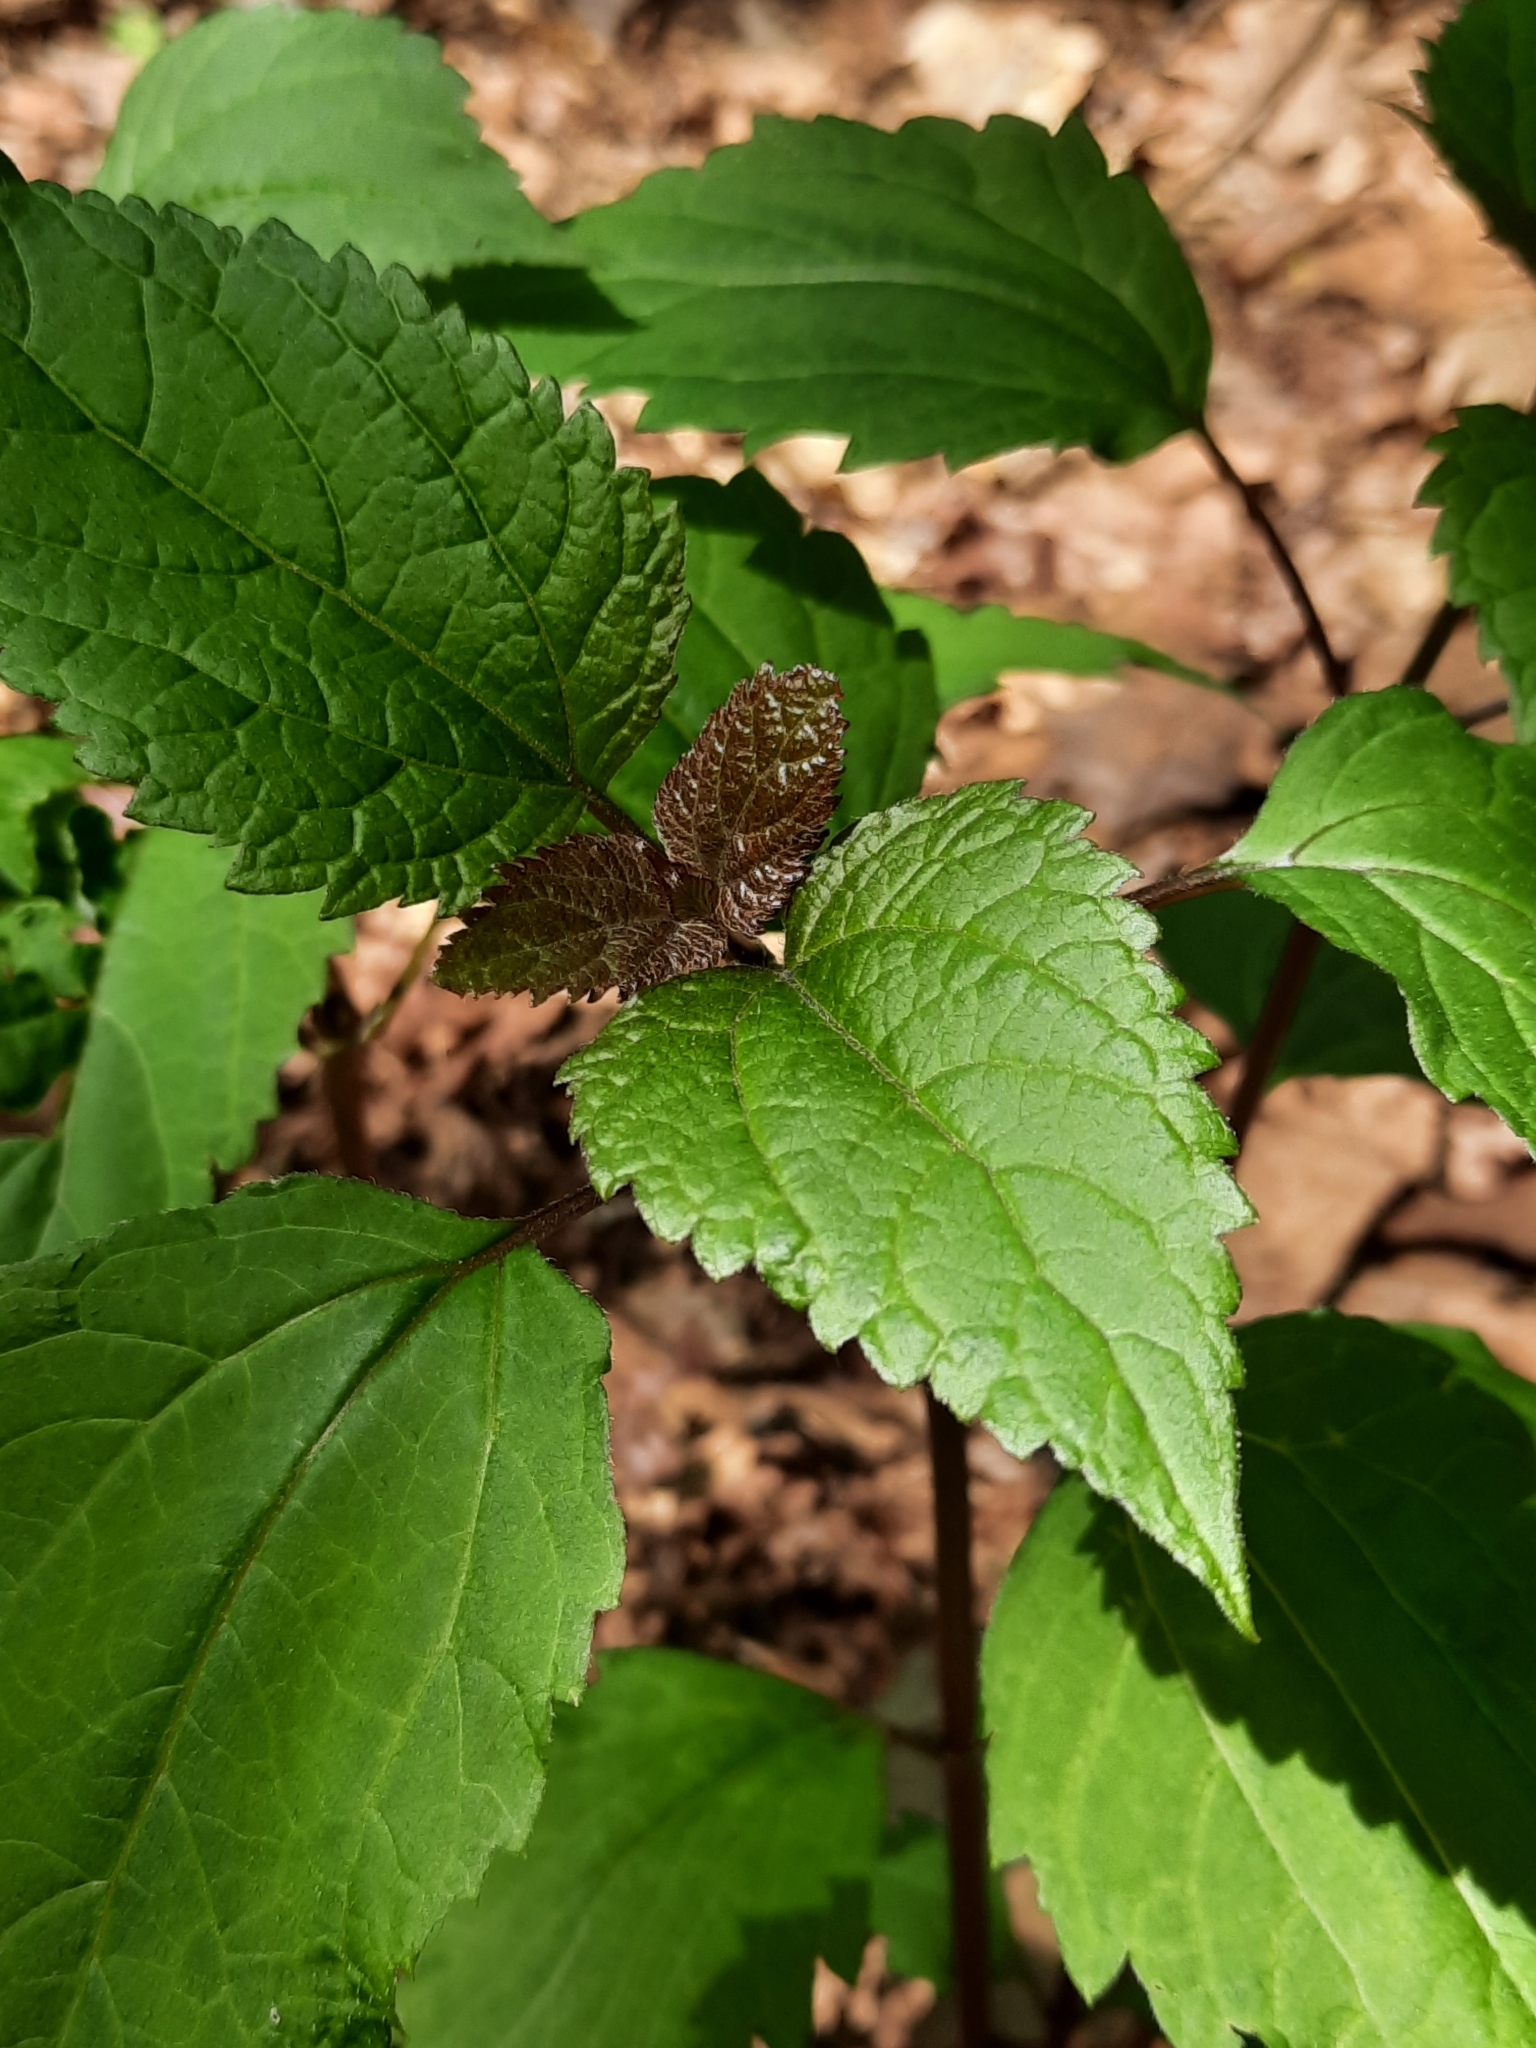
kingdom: Plantae
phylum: Tracheophyta
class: Magnoliopsida
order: Asterales
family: Asteraceae
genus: Ageratina
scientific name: Ageratina altissima
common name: White snakeroot
